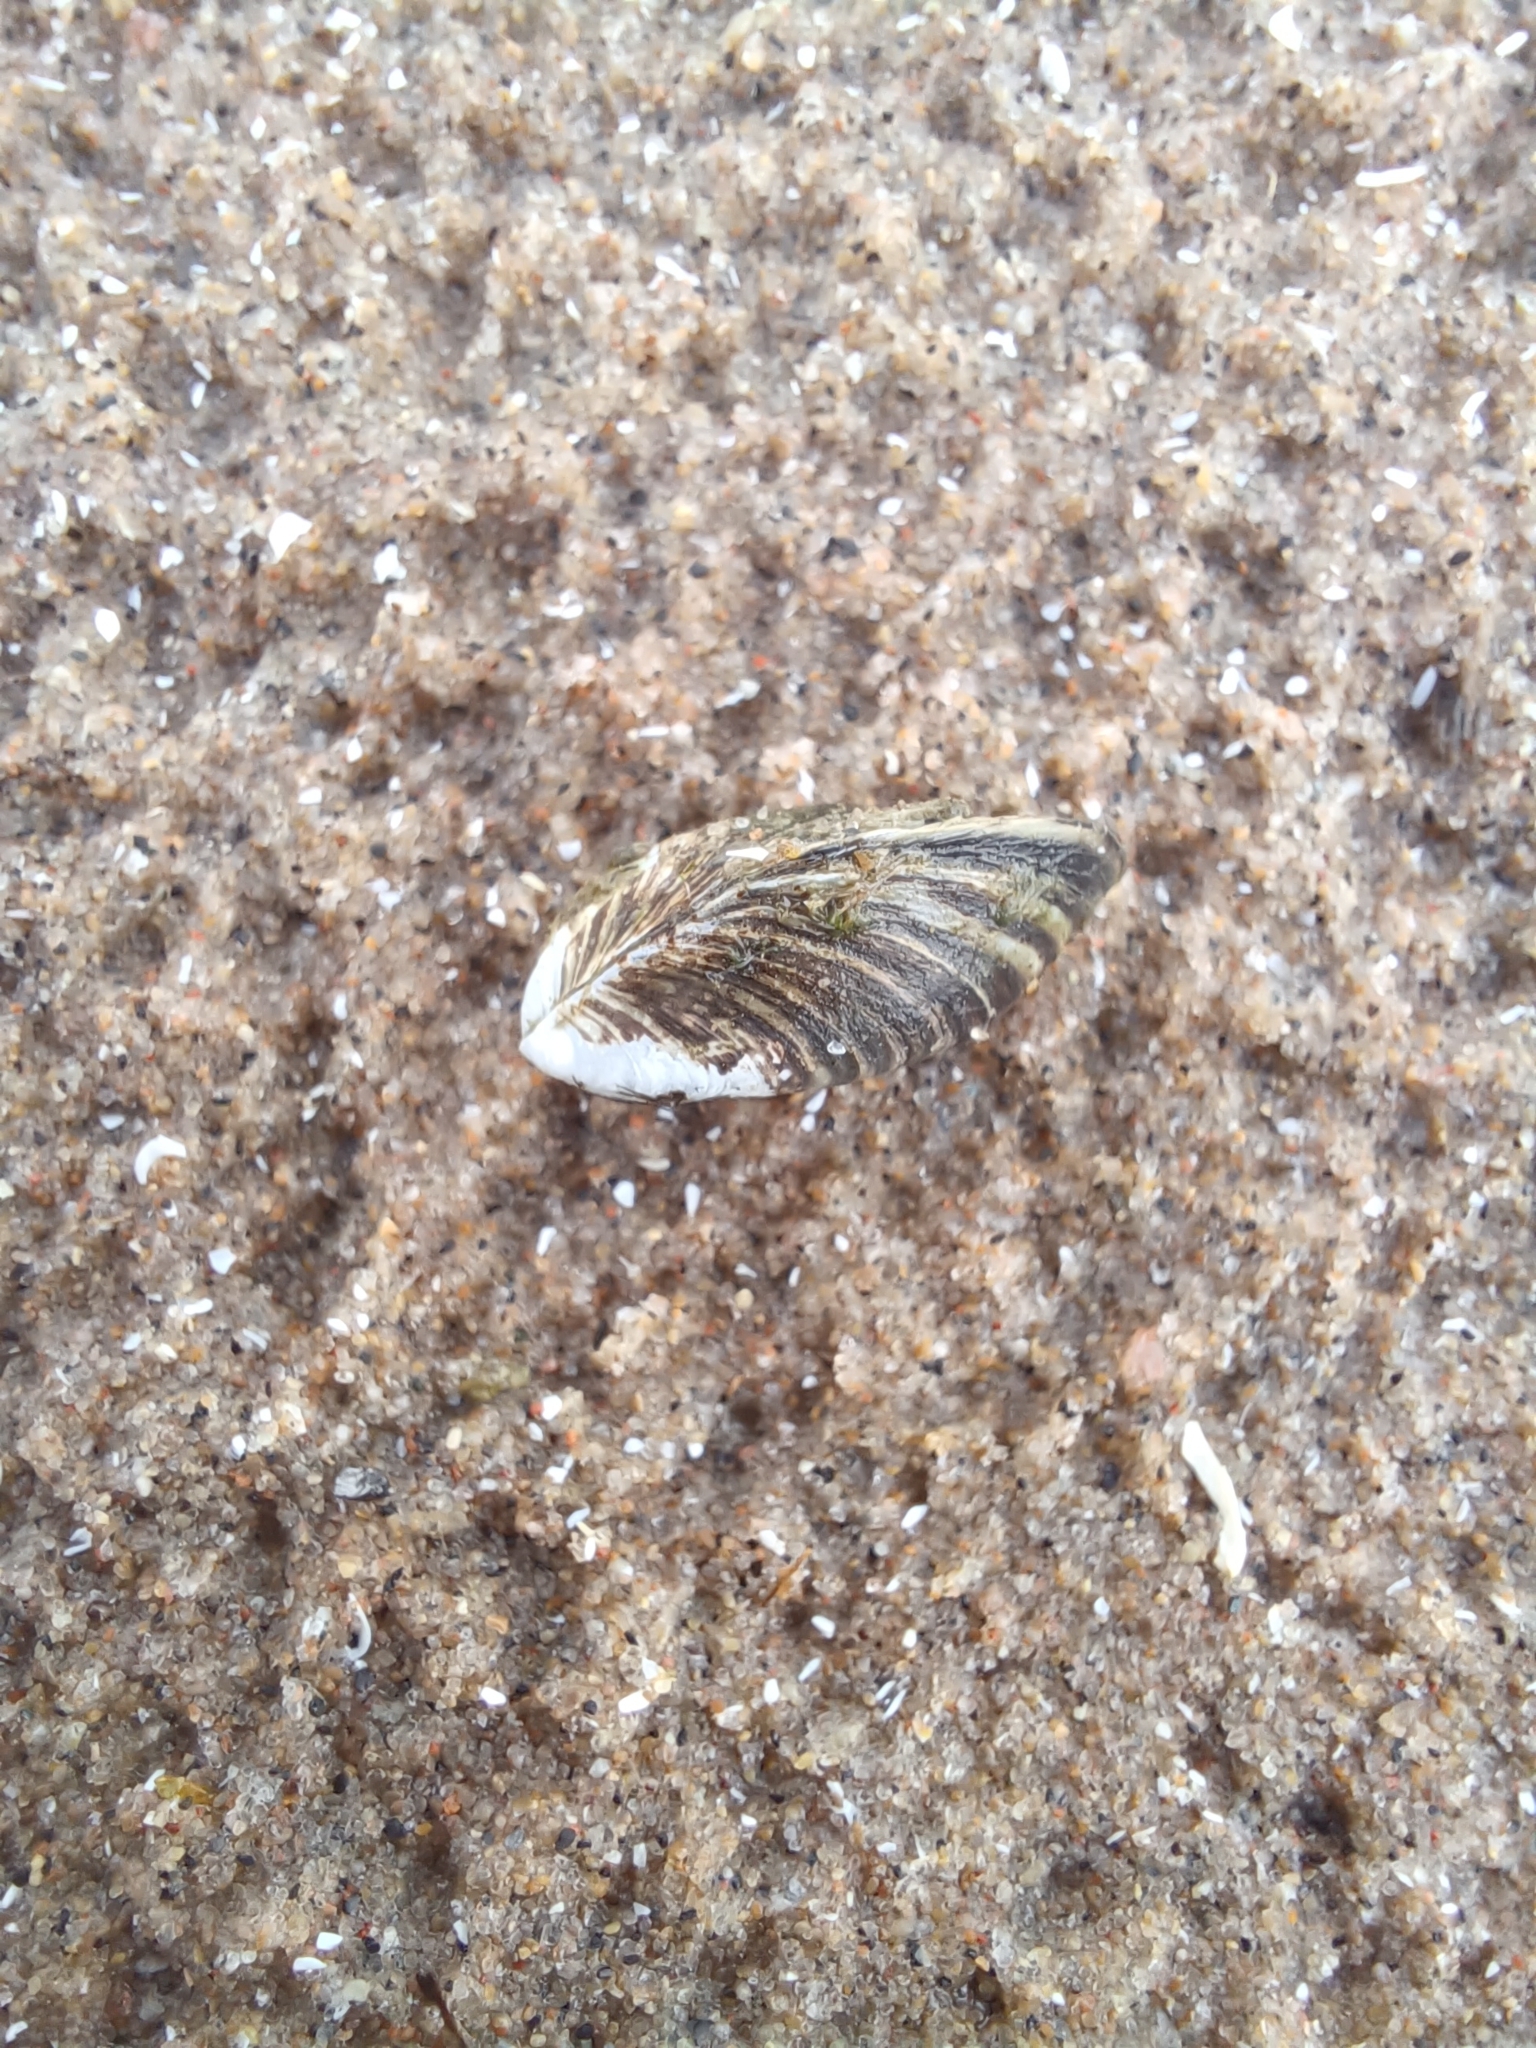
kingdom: Animalia
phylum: Mollusca
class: Bivalvia
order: Myida
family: Dreissenidae
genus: Dreissena
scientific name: Dreissena polymorpha
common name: Zebra mussel
